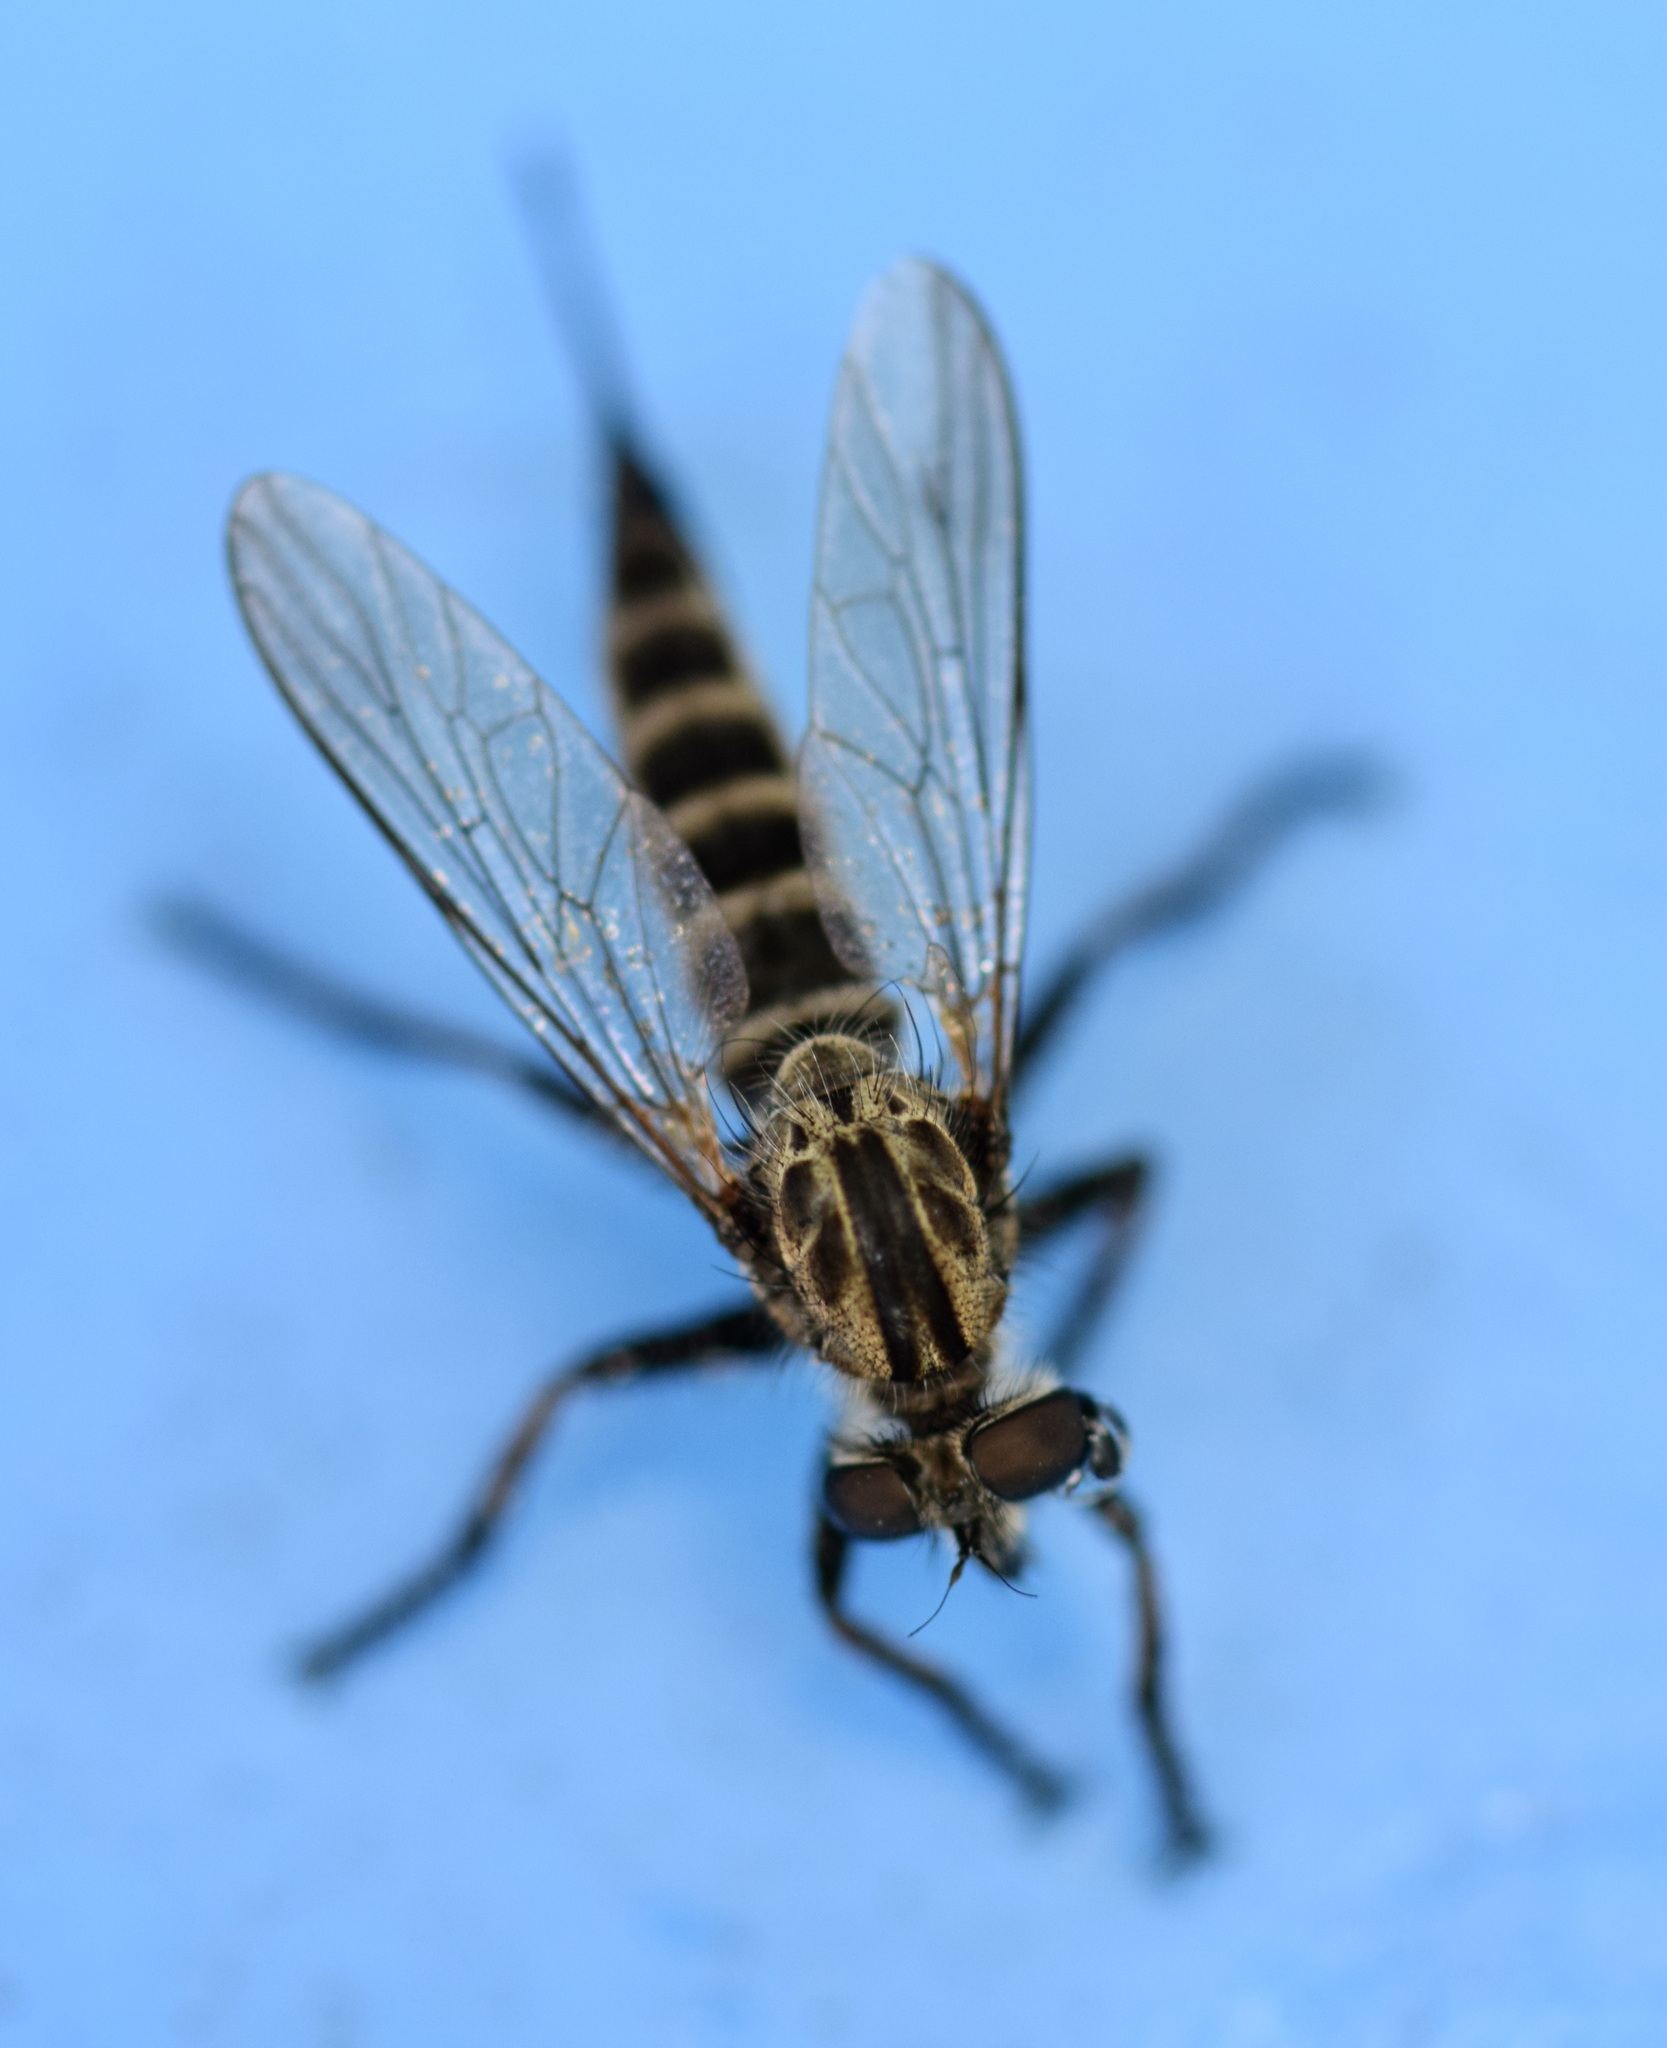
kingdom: Animalia
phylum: Arthropoda
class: Insecta
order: Diptera
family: Asilidae
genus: Efferia
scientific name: Efferia aestuans
